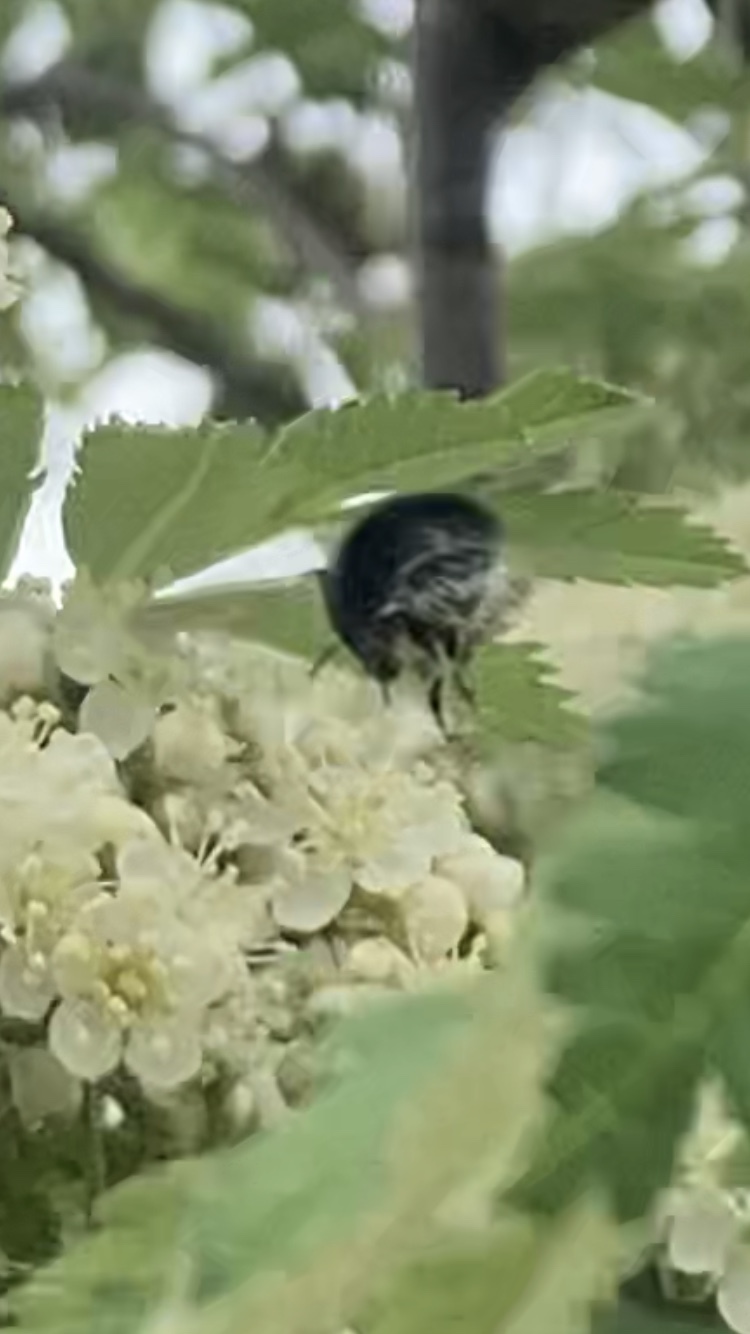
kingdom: Animalia
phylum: Arthropoda
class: Insecta
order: Hymenoptera
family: Apidae
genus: Bombus
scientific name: Bombus hypnorum
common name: New garden bumblebee
